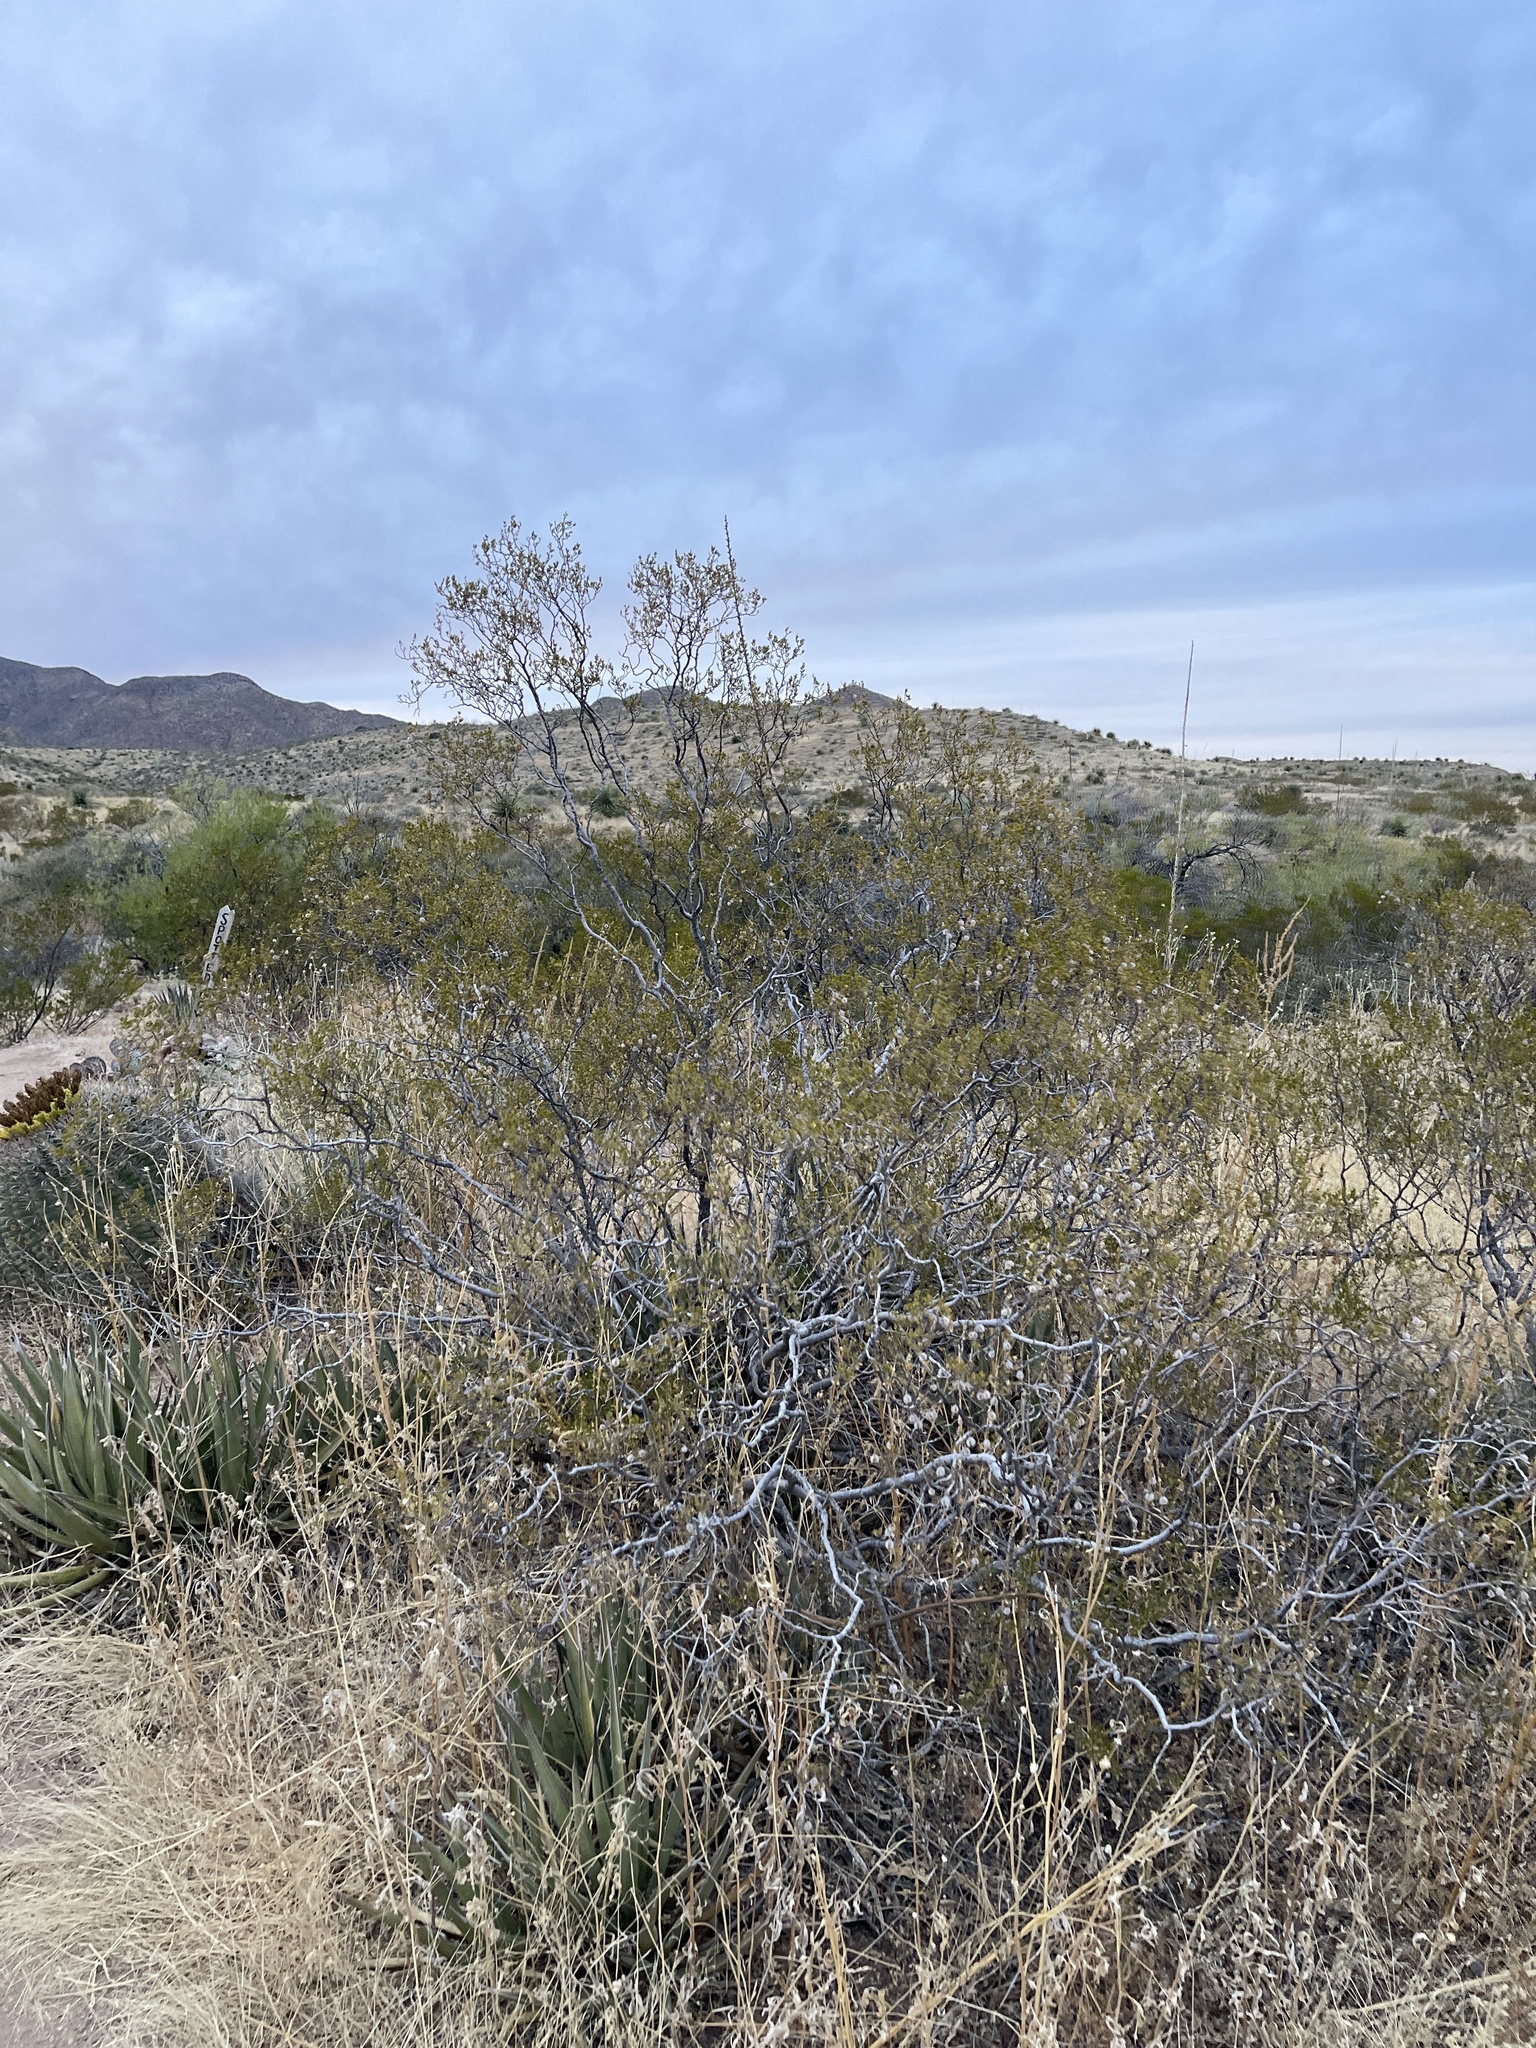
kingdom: Plantae
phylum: Tracheophyta
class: Magnoliopsida
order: Zygophyllales
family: Zygophyllaceae
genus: Larrea
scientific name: Larrea tridentata
